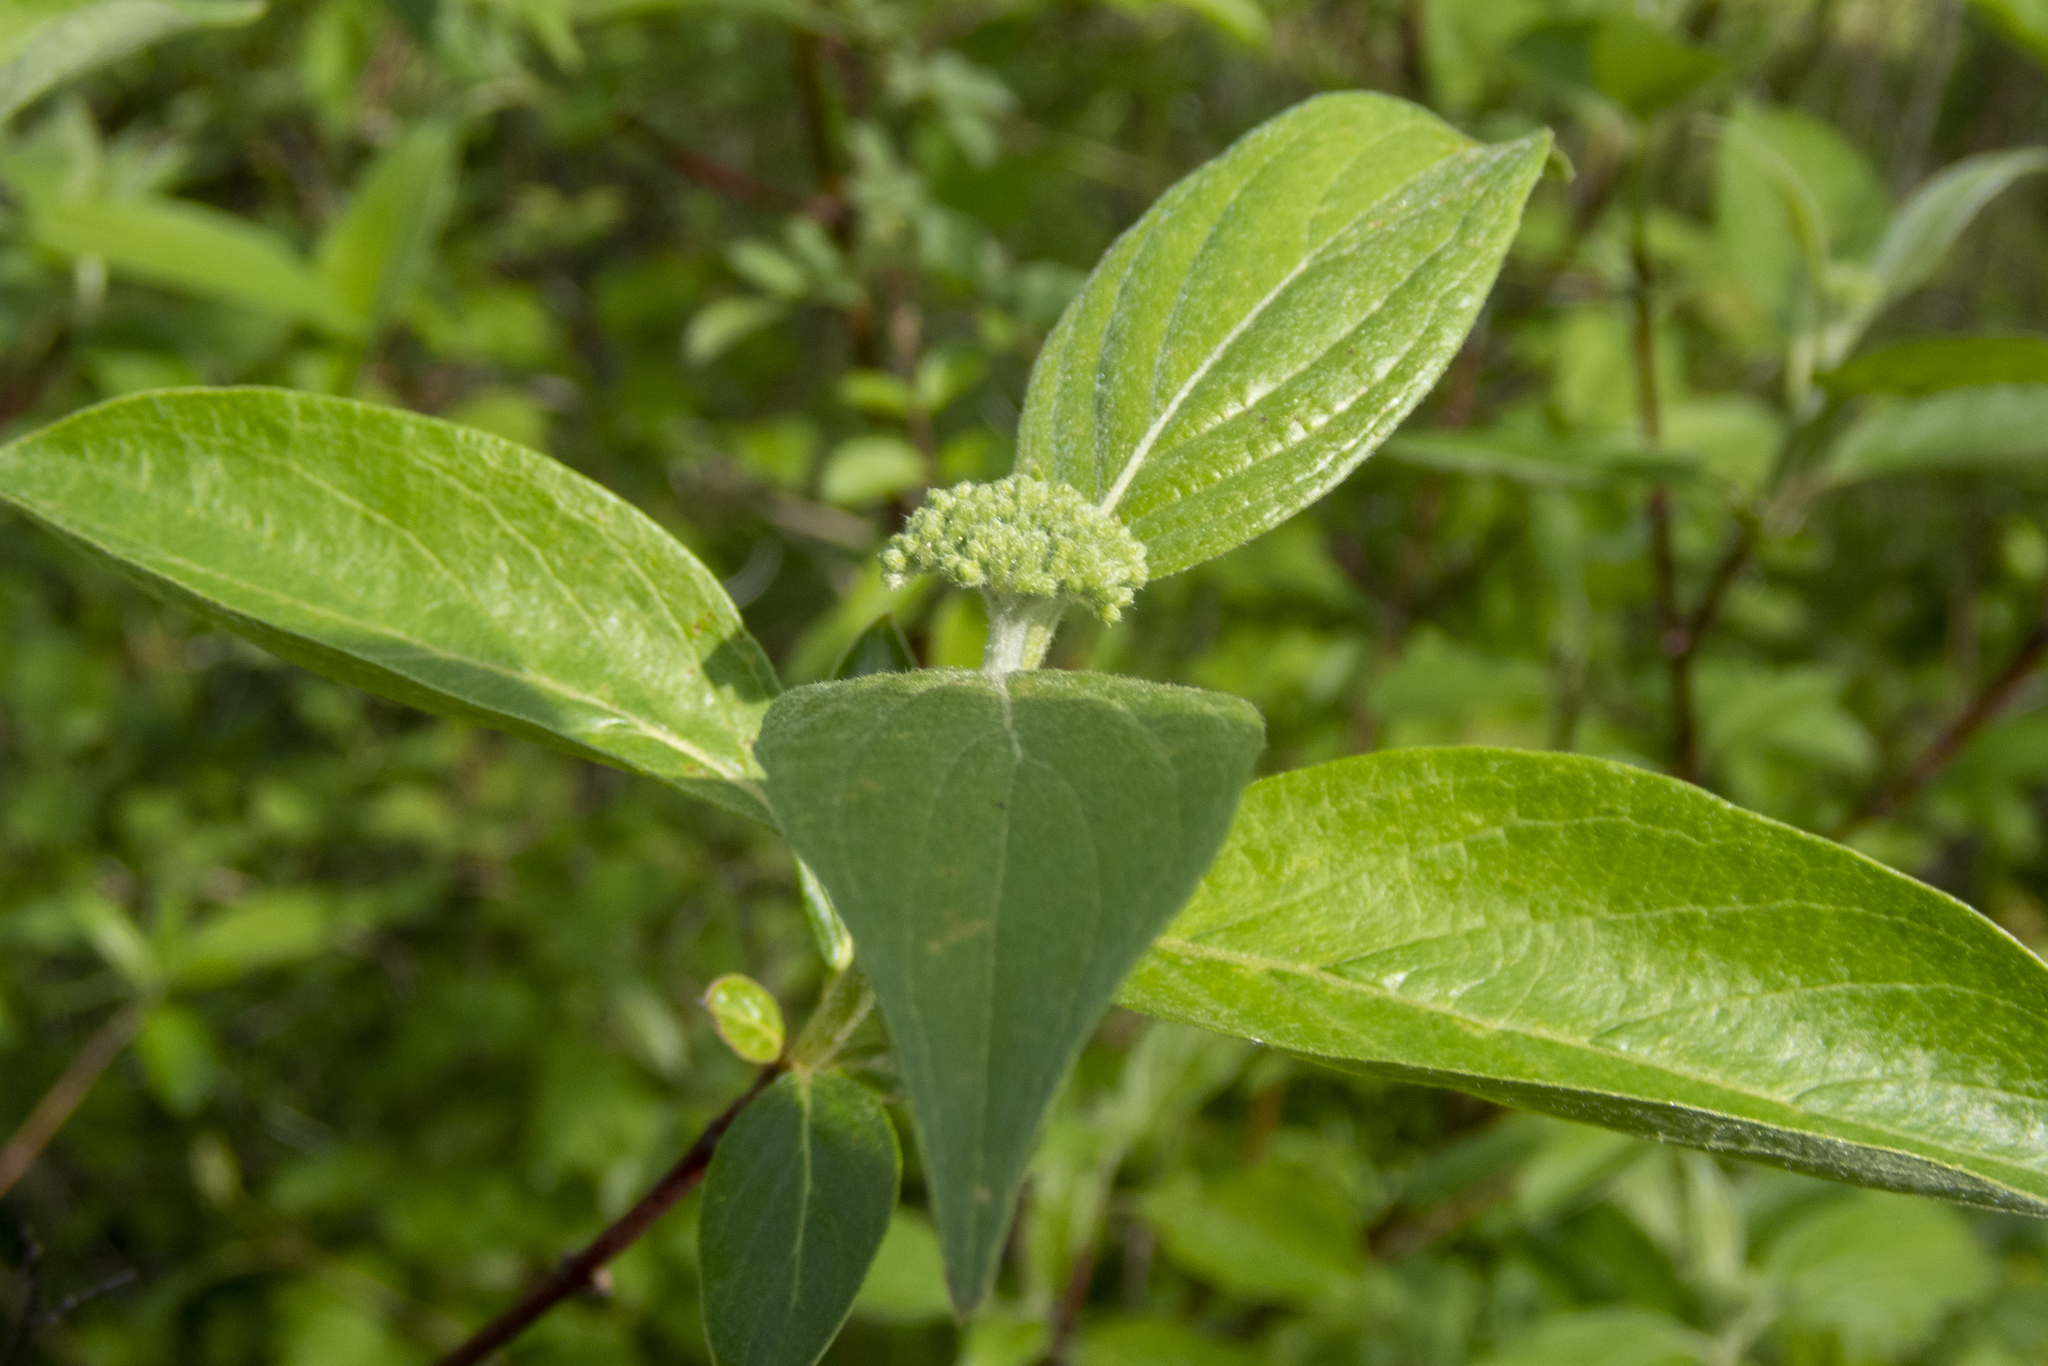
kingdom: Plantae
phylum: Tracheophyta
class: Magnoliopsida
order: Cornales
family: Cornaceae
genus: Cornus
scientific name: Cornus amomum
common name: Silky dogwood
